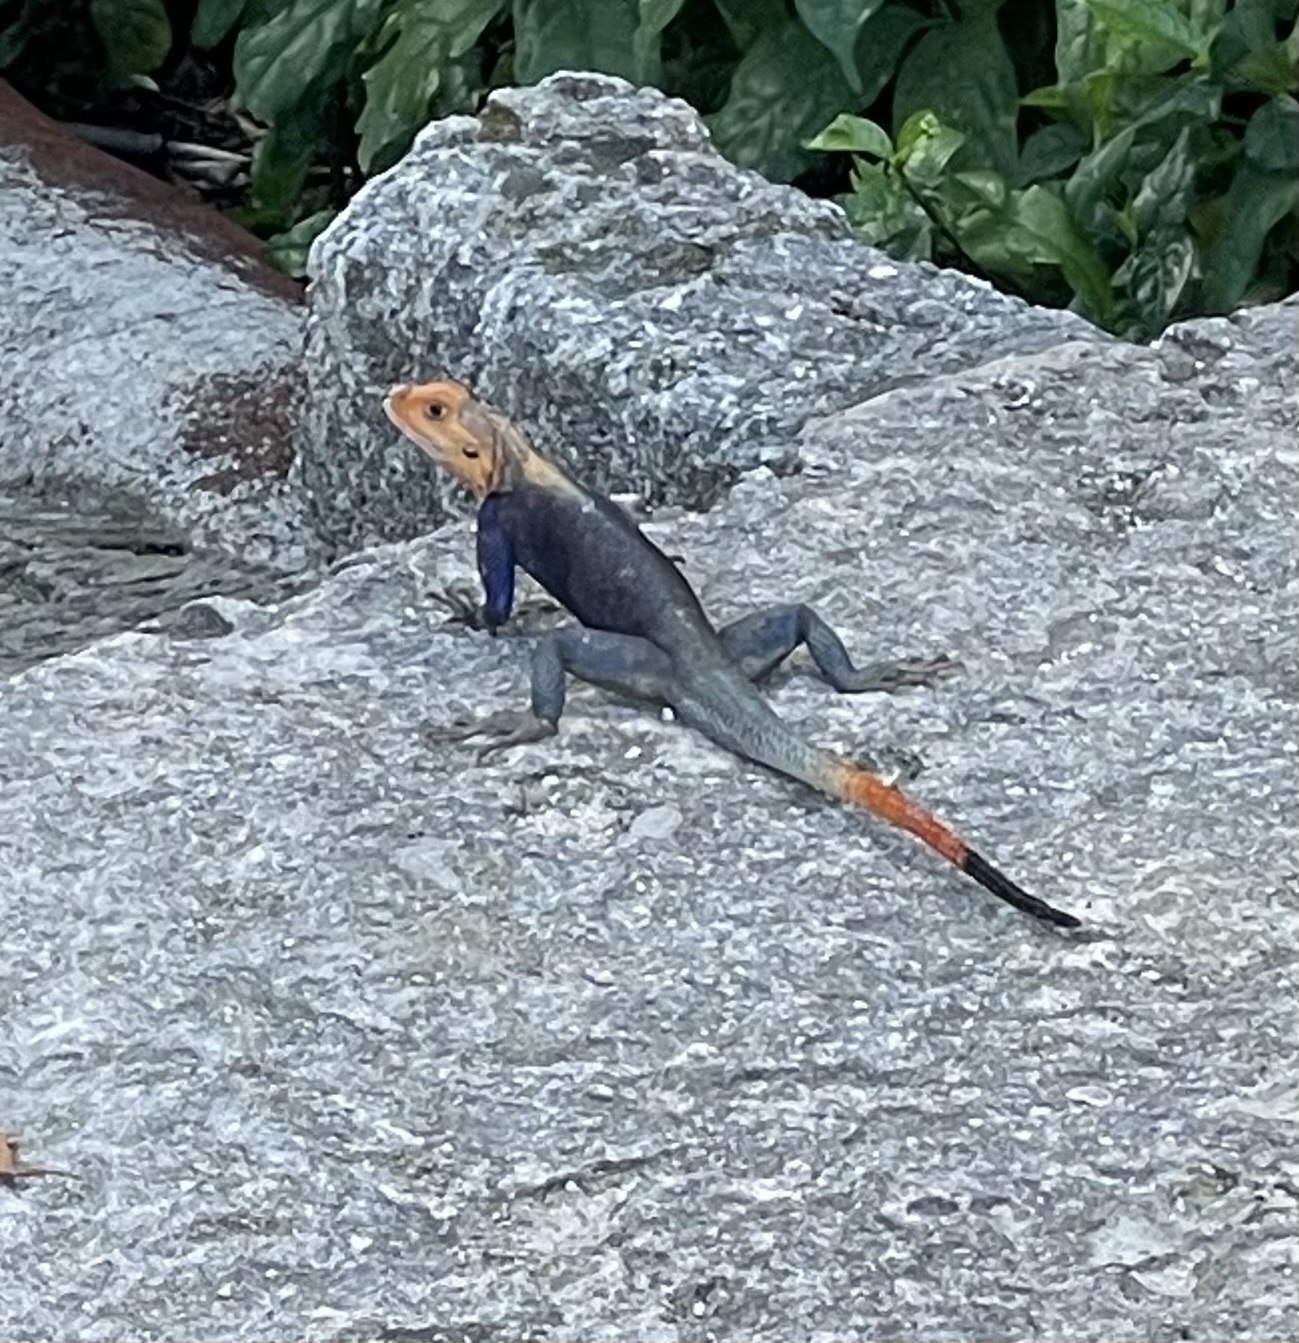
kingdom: Animalia
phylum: Chordata
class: Squamata
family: Agamidae
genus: Agama
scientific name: Agama picticauda
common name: Red-headed agama
